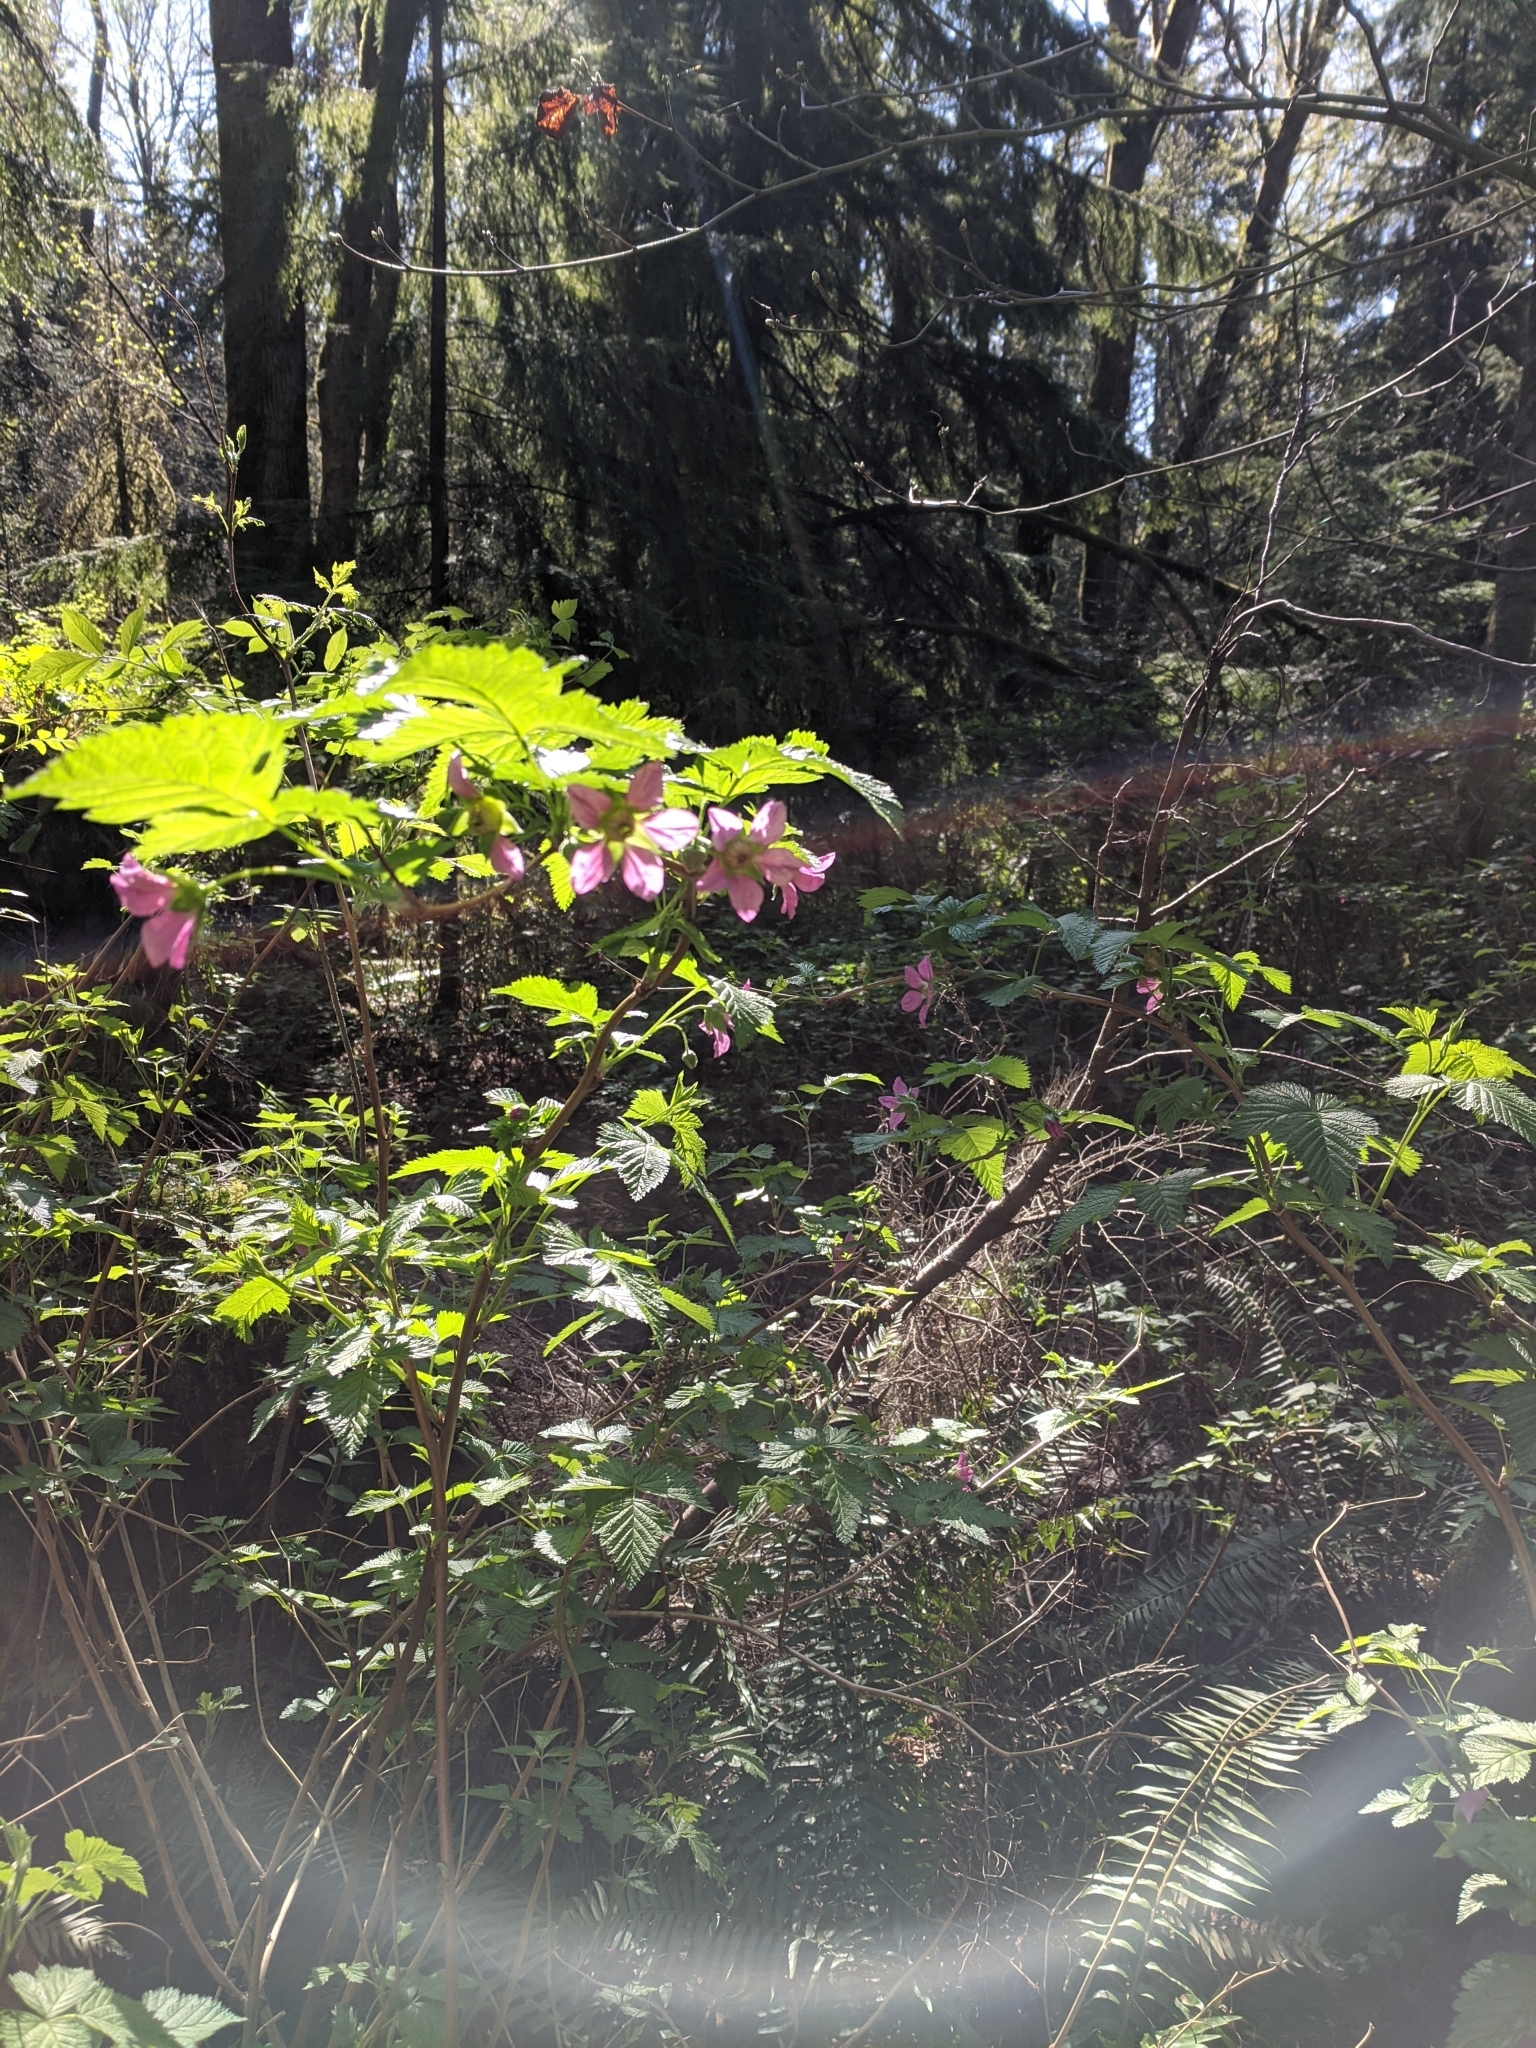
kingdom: Plantae
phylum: Tracheophyta
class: Magnoliopsida
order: Rosales
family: Rosaceae
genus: Rubus
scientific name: Rubus spectabilis
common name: Salmonberry
